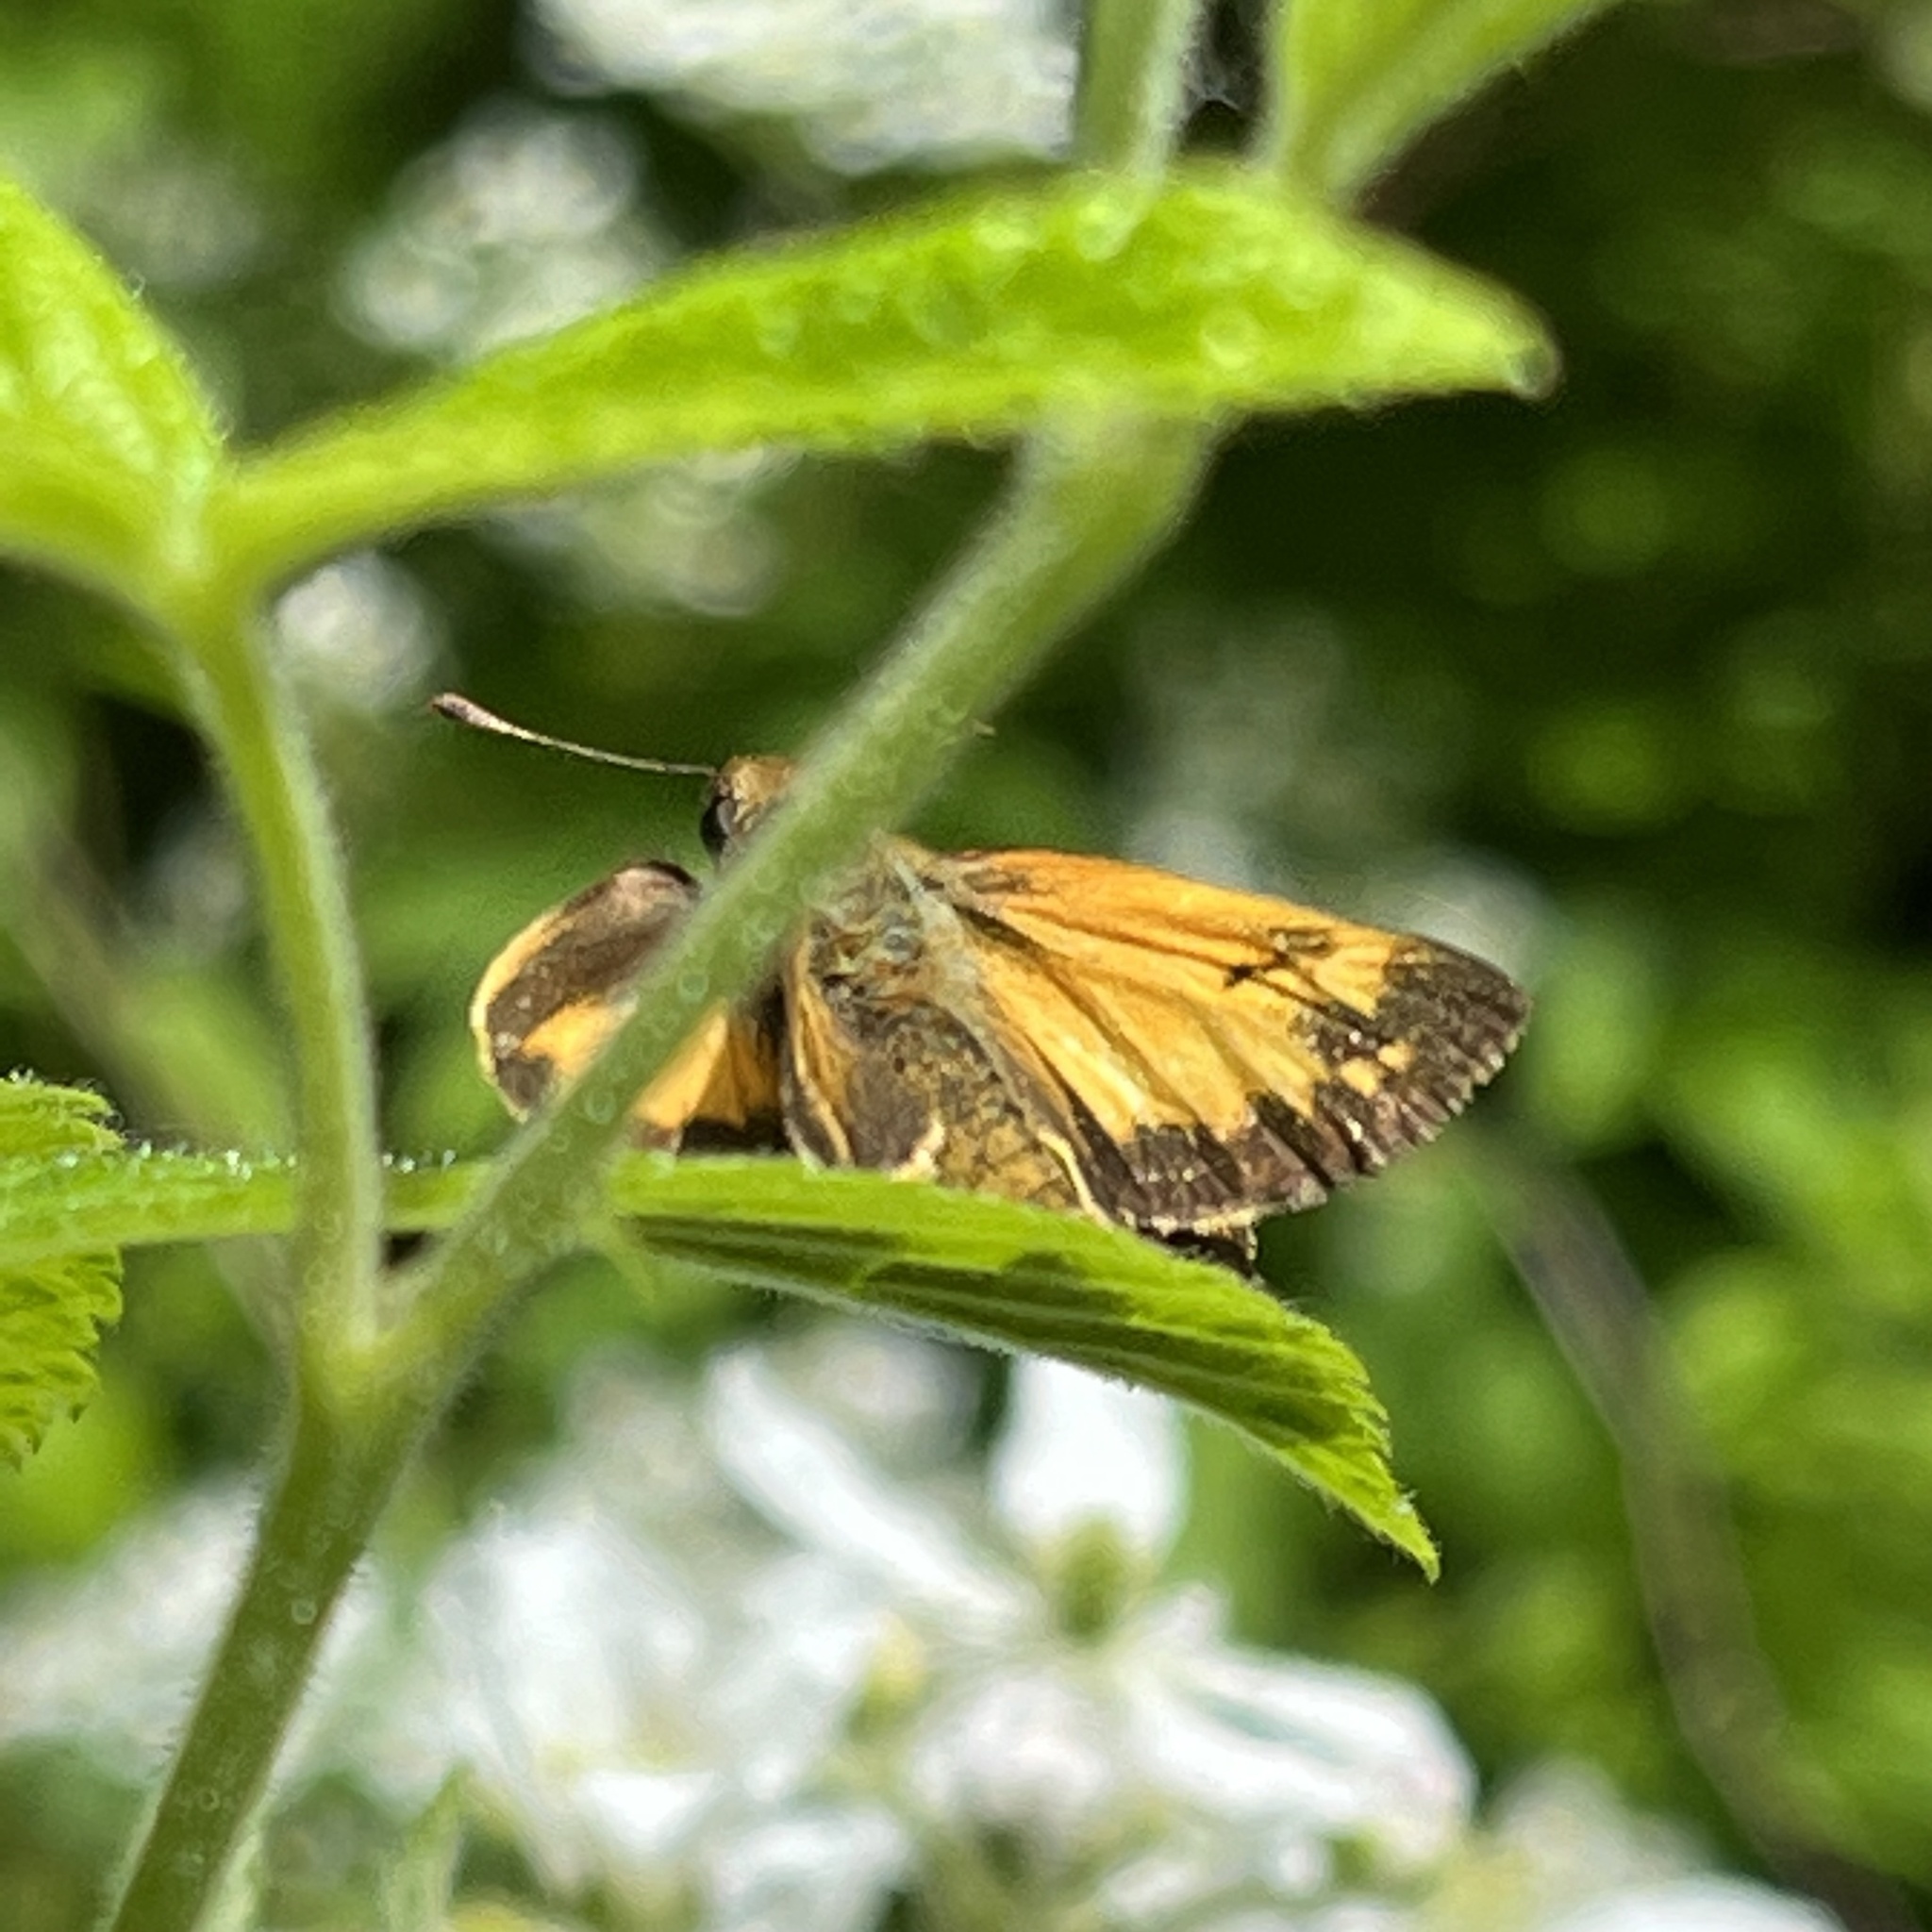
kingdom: Animalia
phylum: Arthropoda
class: Insecta
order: Lepidoptera
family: Hesperiidae
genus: Lon
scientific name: Lon zabulon
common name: Zabulon skipper
